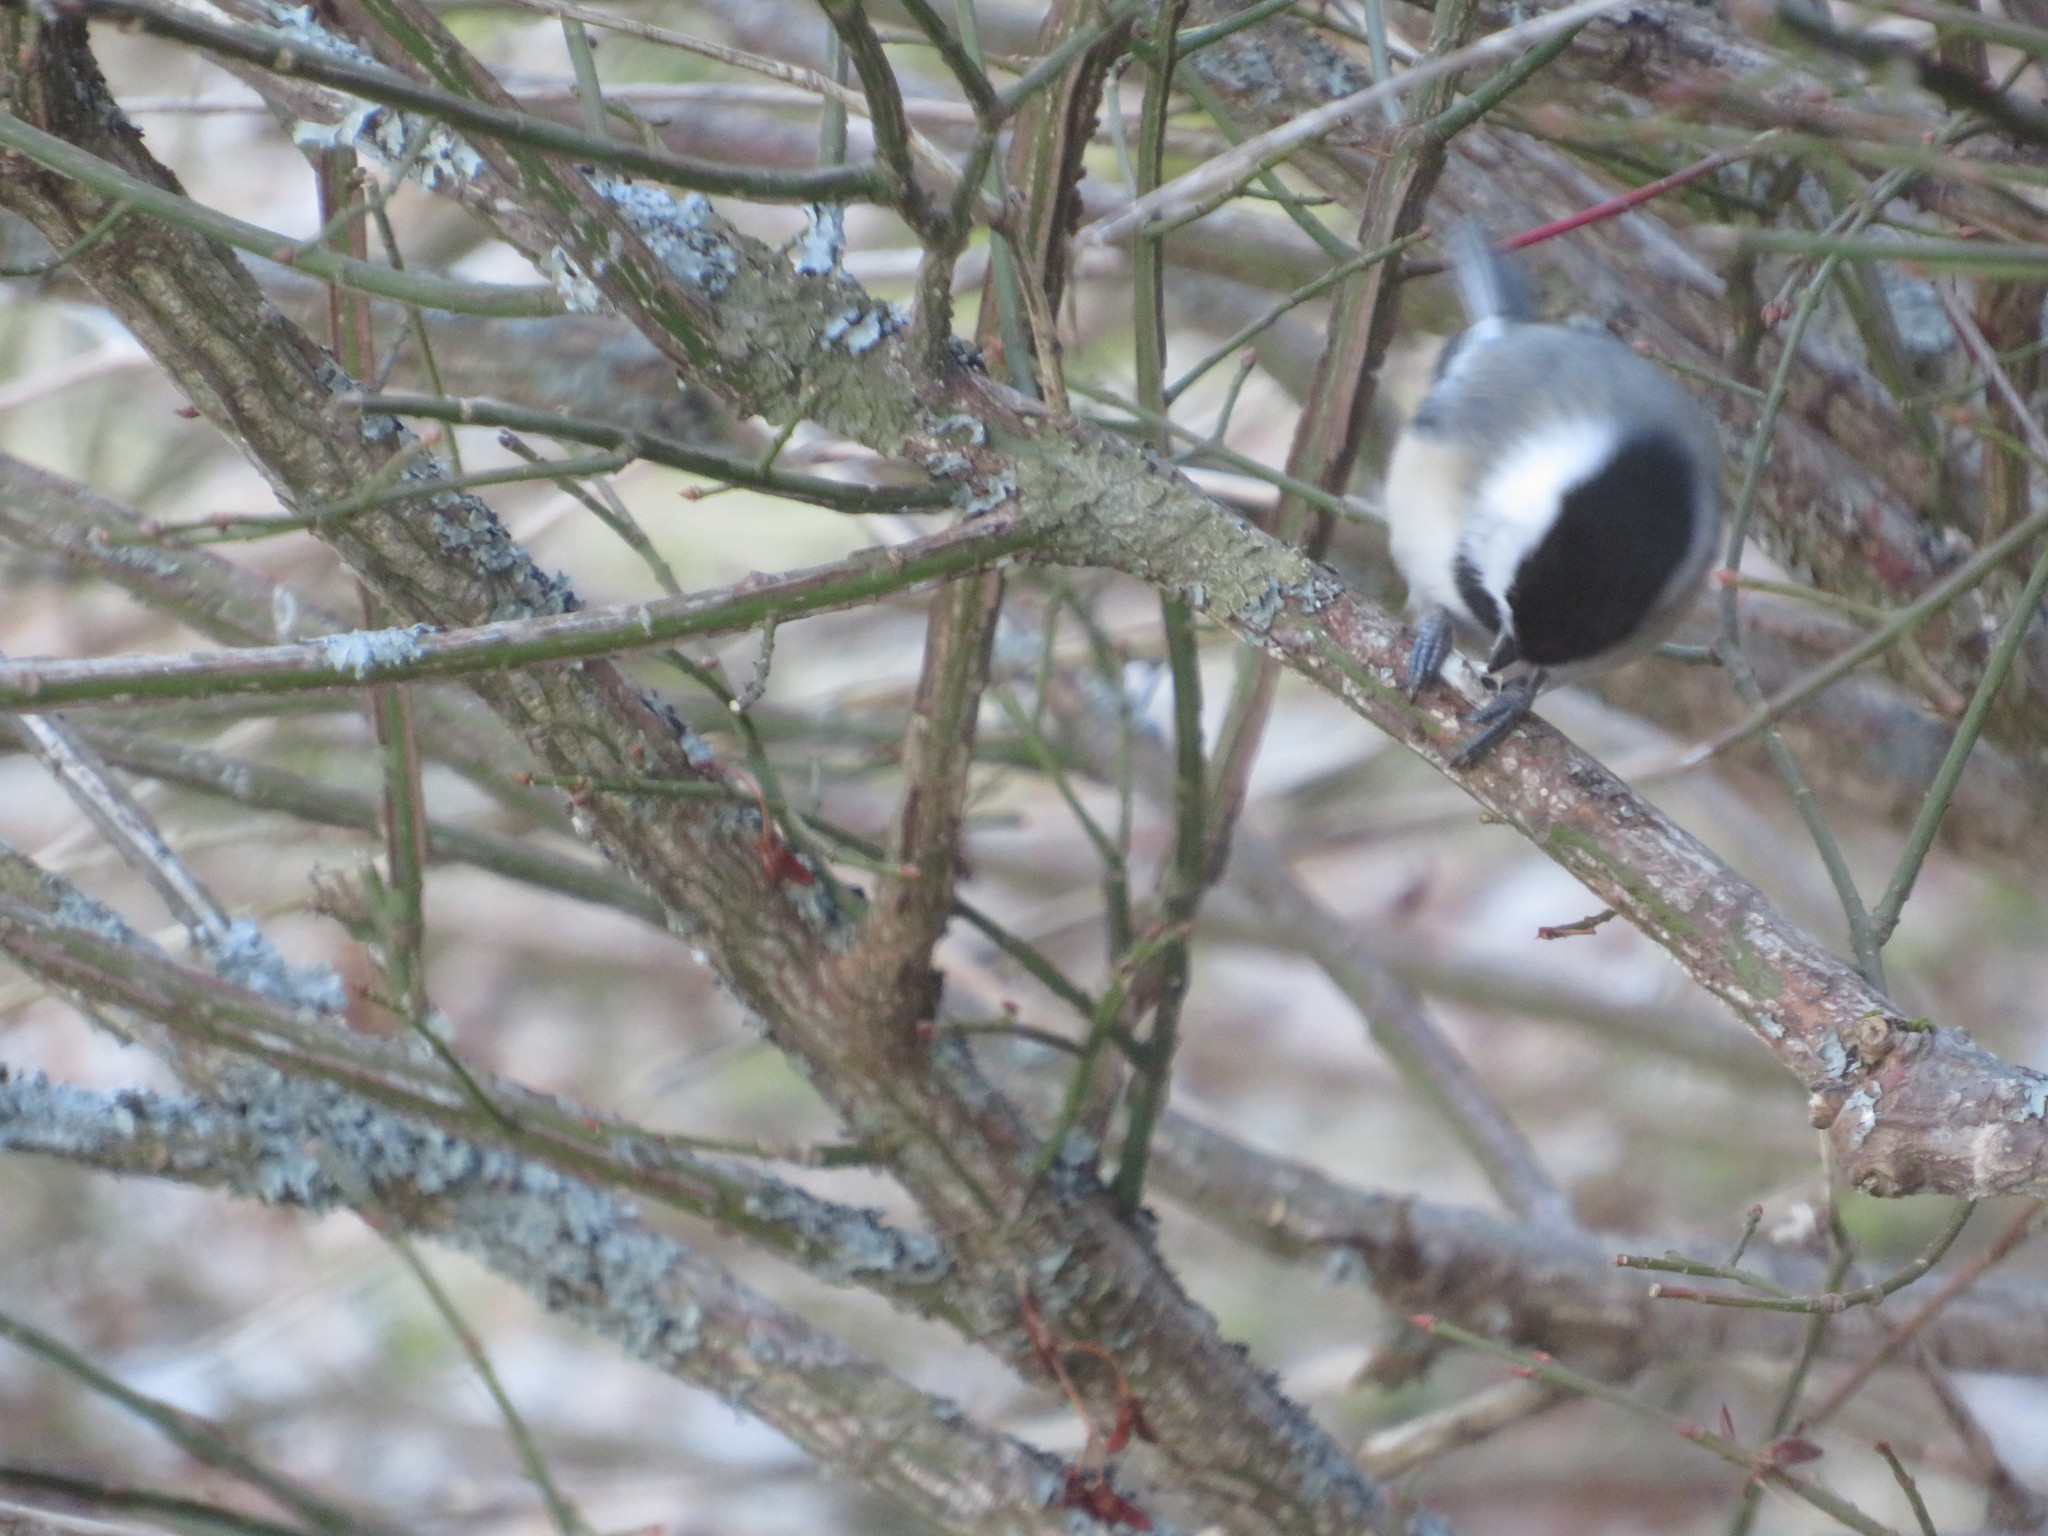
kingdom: Animalia
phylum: Chordata
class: Aves
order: Passeriformes
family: Paridae
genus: Poecile
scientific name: Poecile atricapillus
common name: Black-capped chickadee
